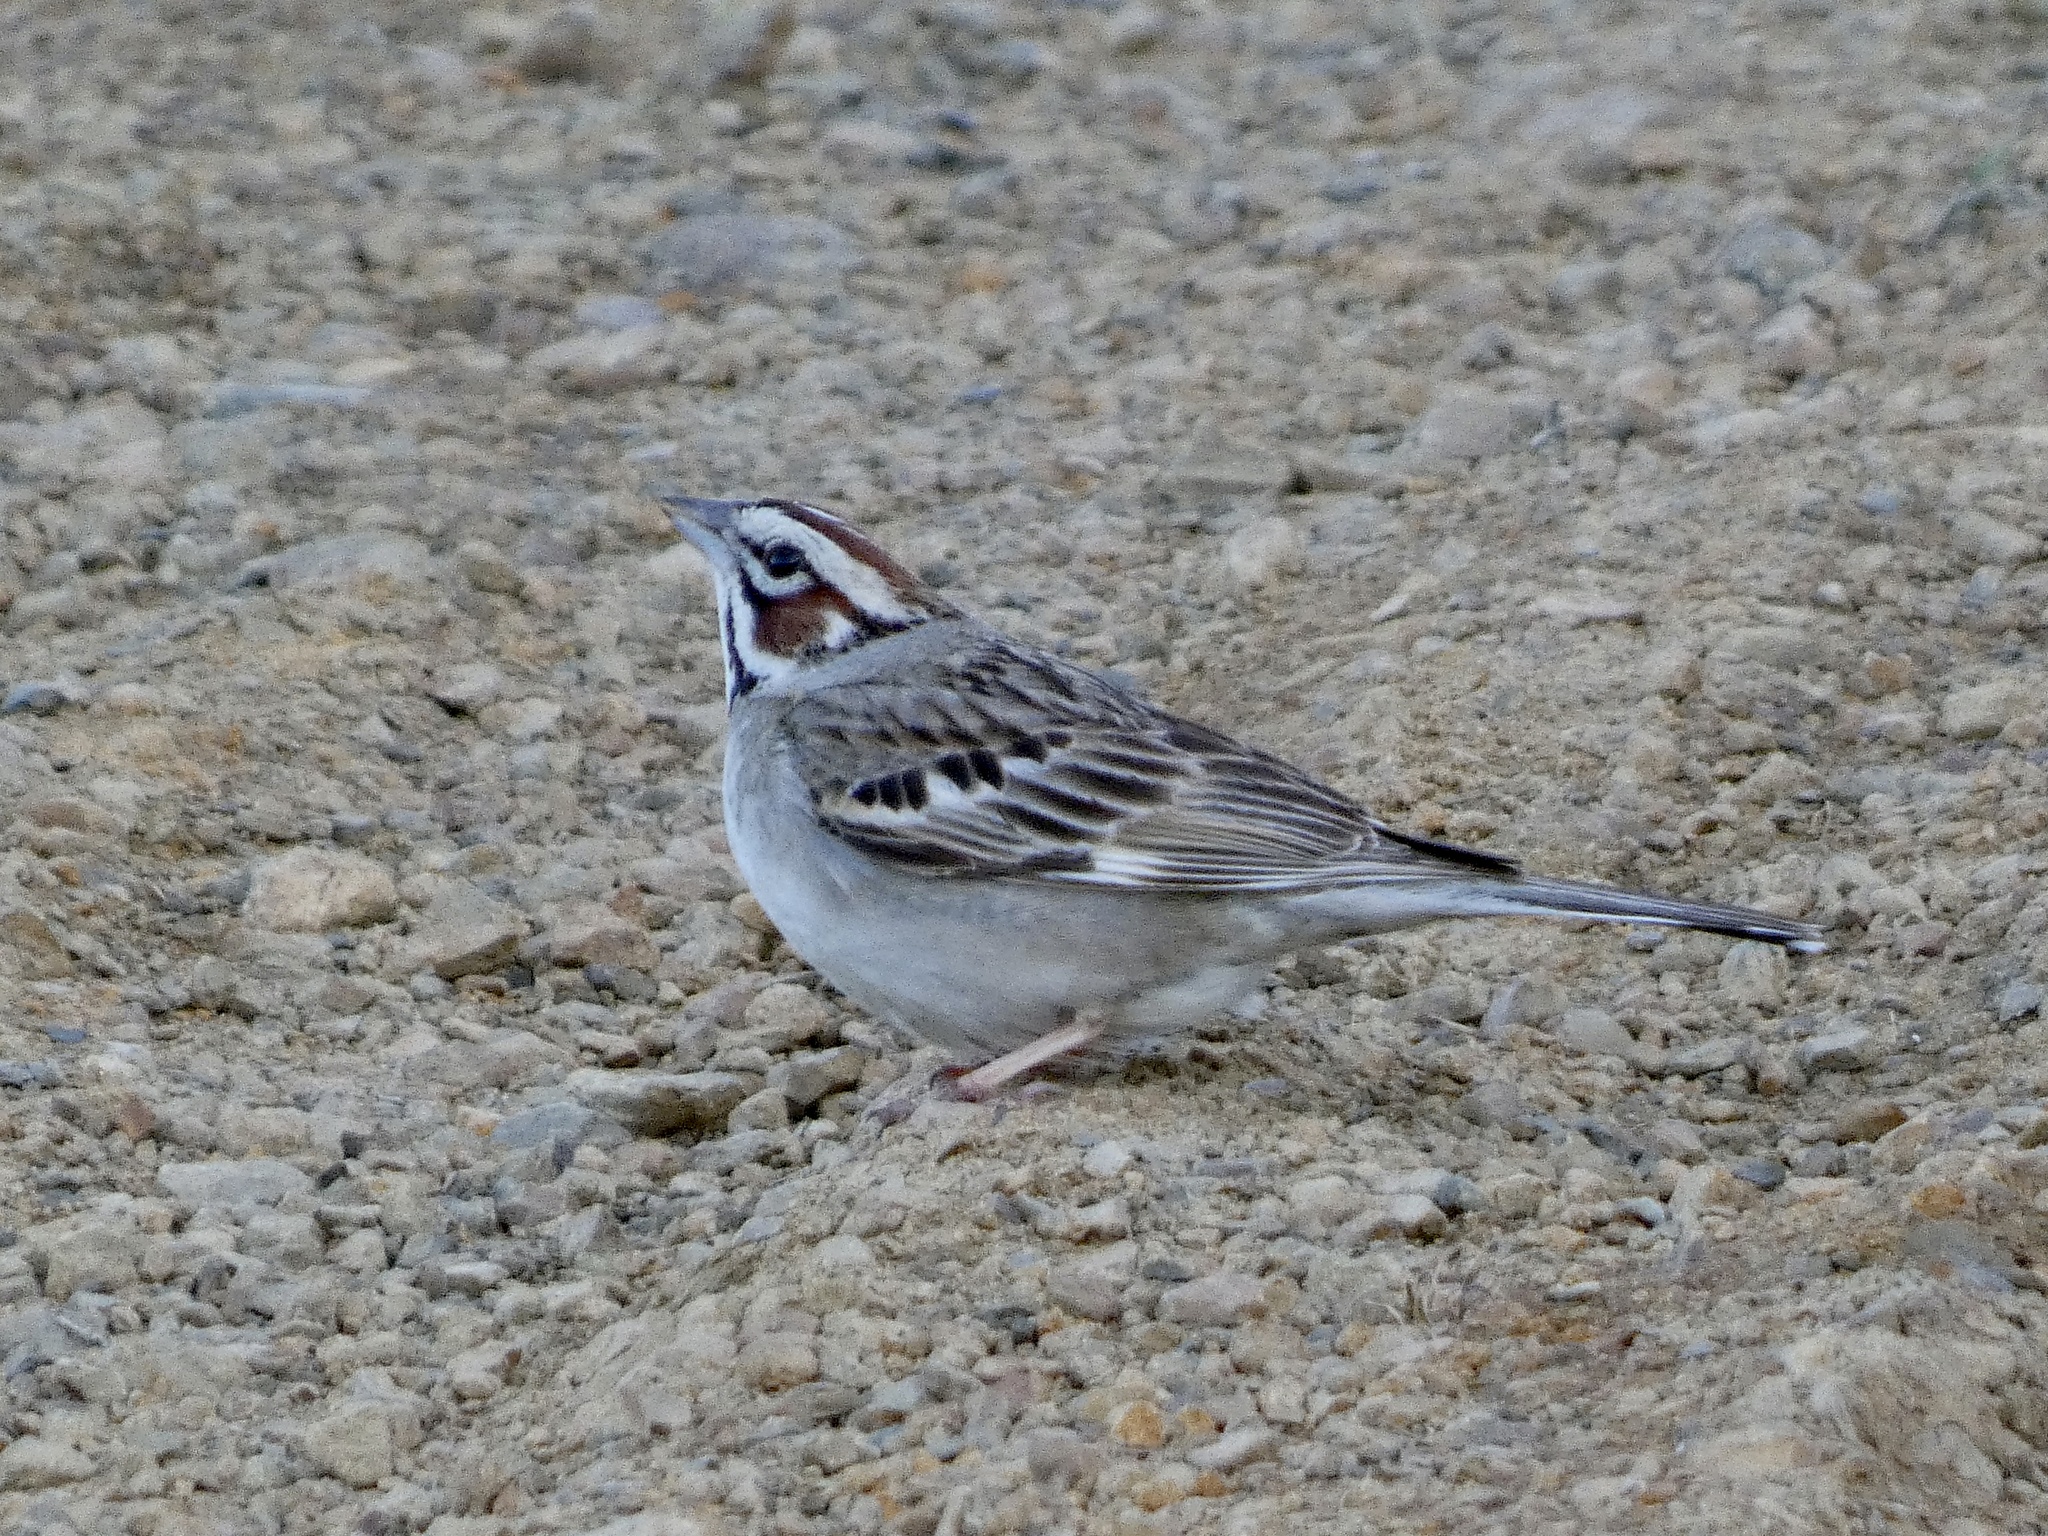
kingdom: Animalia
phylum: Chordata
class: Aves
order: Passeriformes
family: Passerellidae
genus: Chondestes
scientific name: Chondestes grammacus
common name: Lark sparrow
